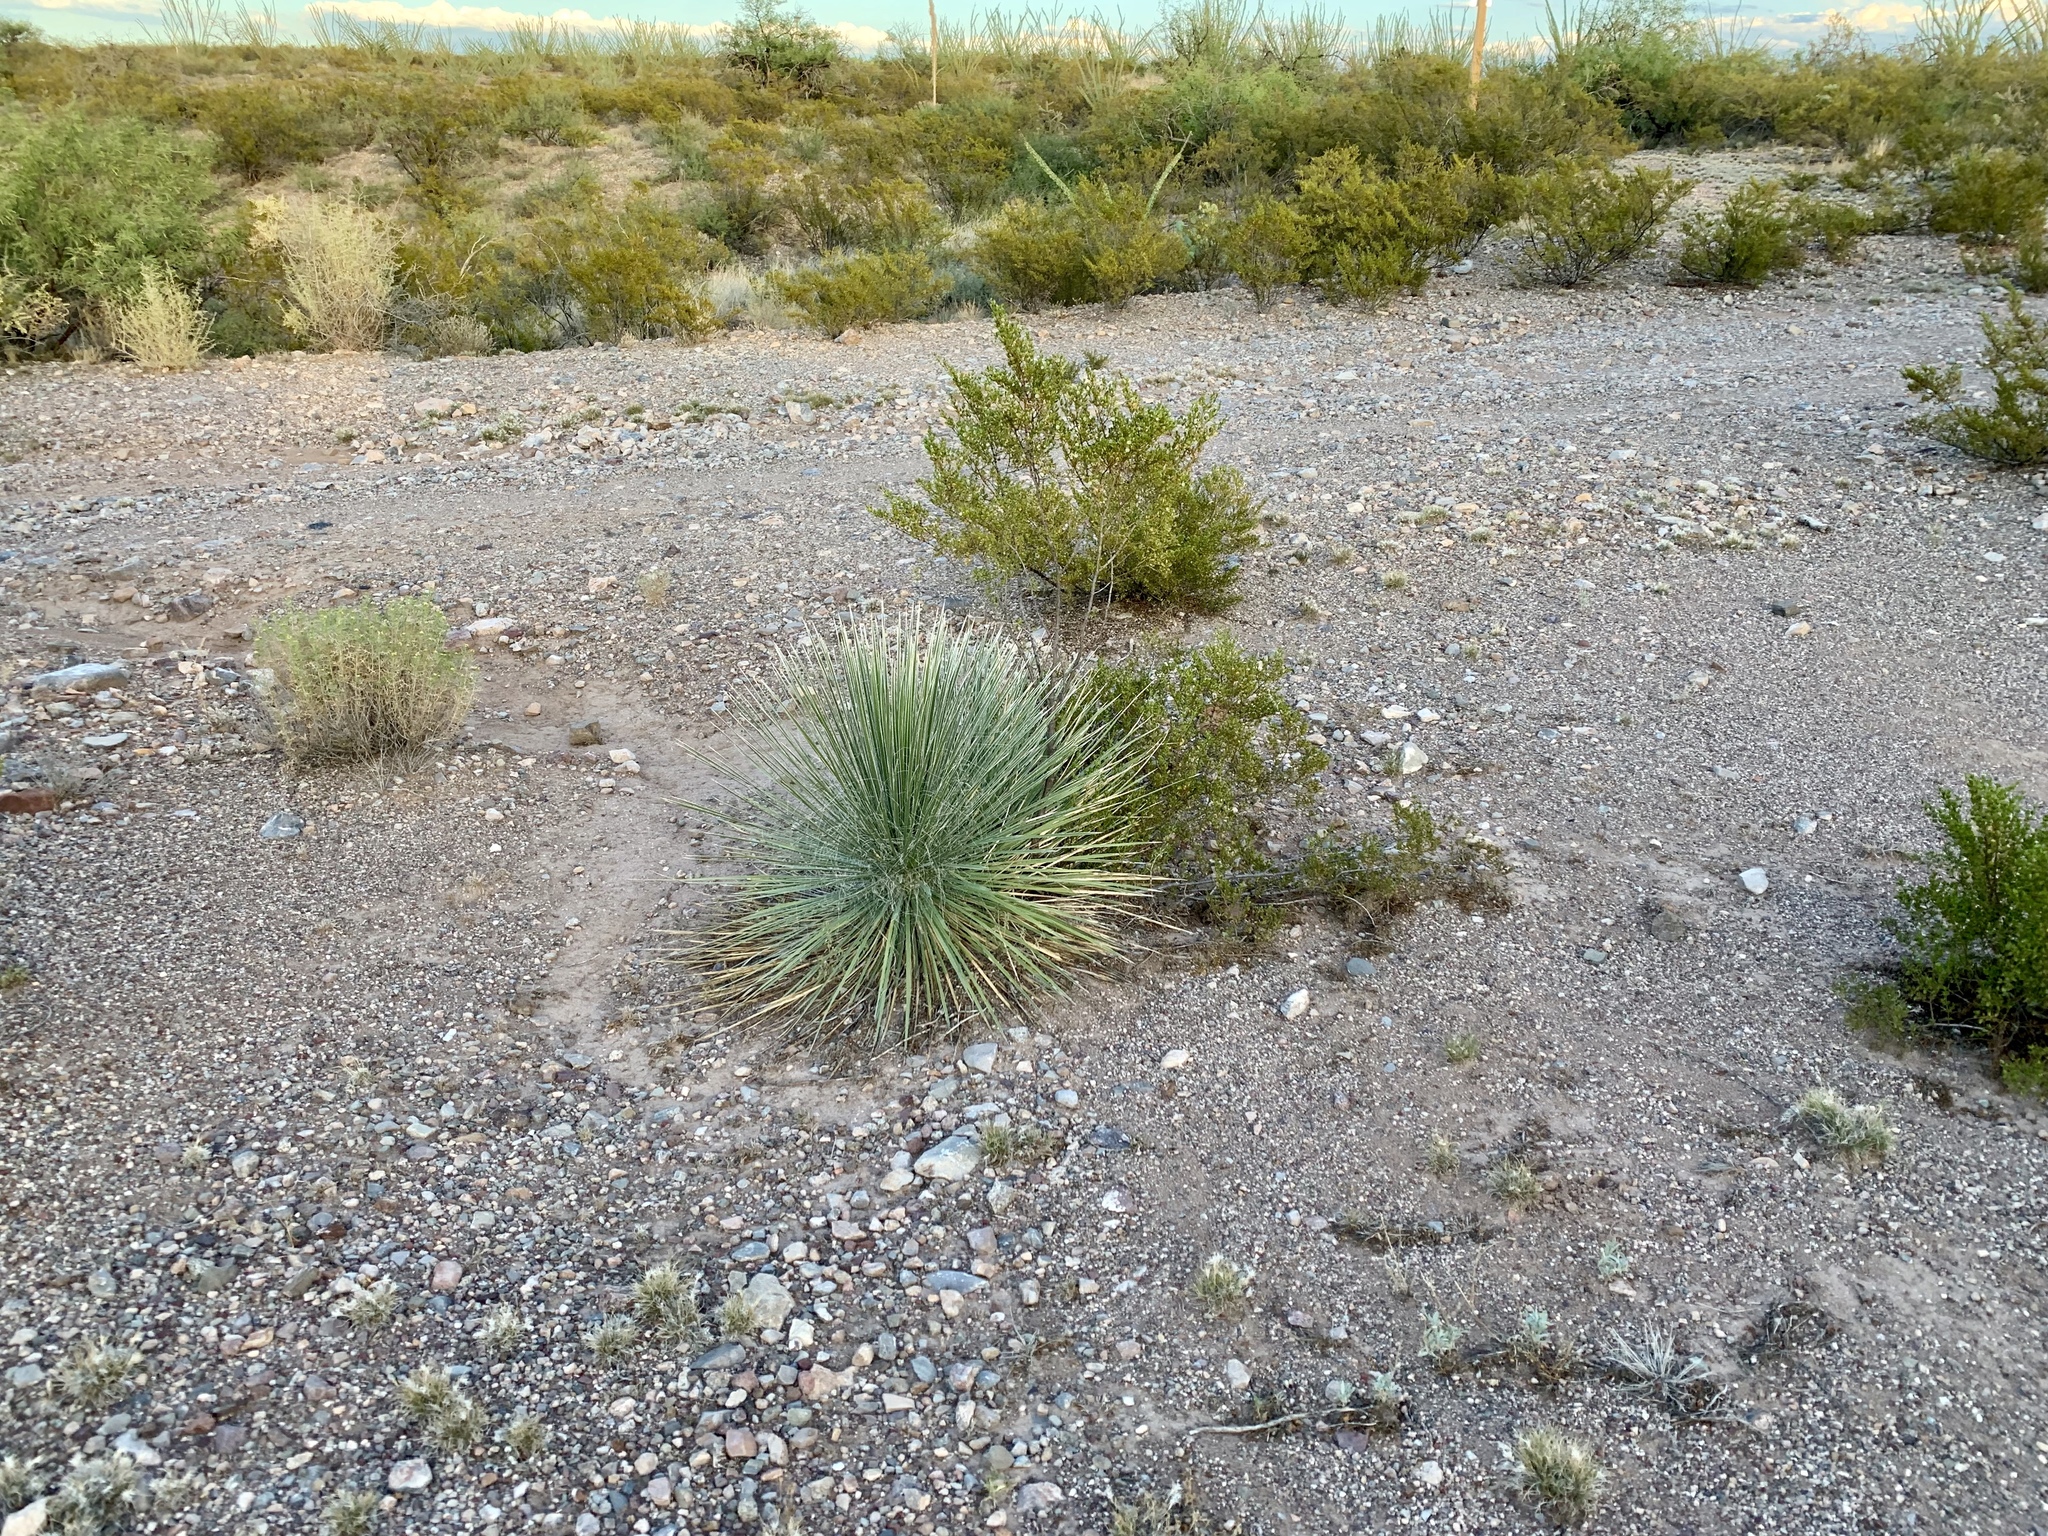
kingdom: Plantae
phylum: Tracheophyta
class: Liliopsida
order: Asparagales
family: Asparagaceae
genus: Yucca
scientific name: Yucca elata
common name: Palmella
